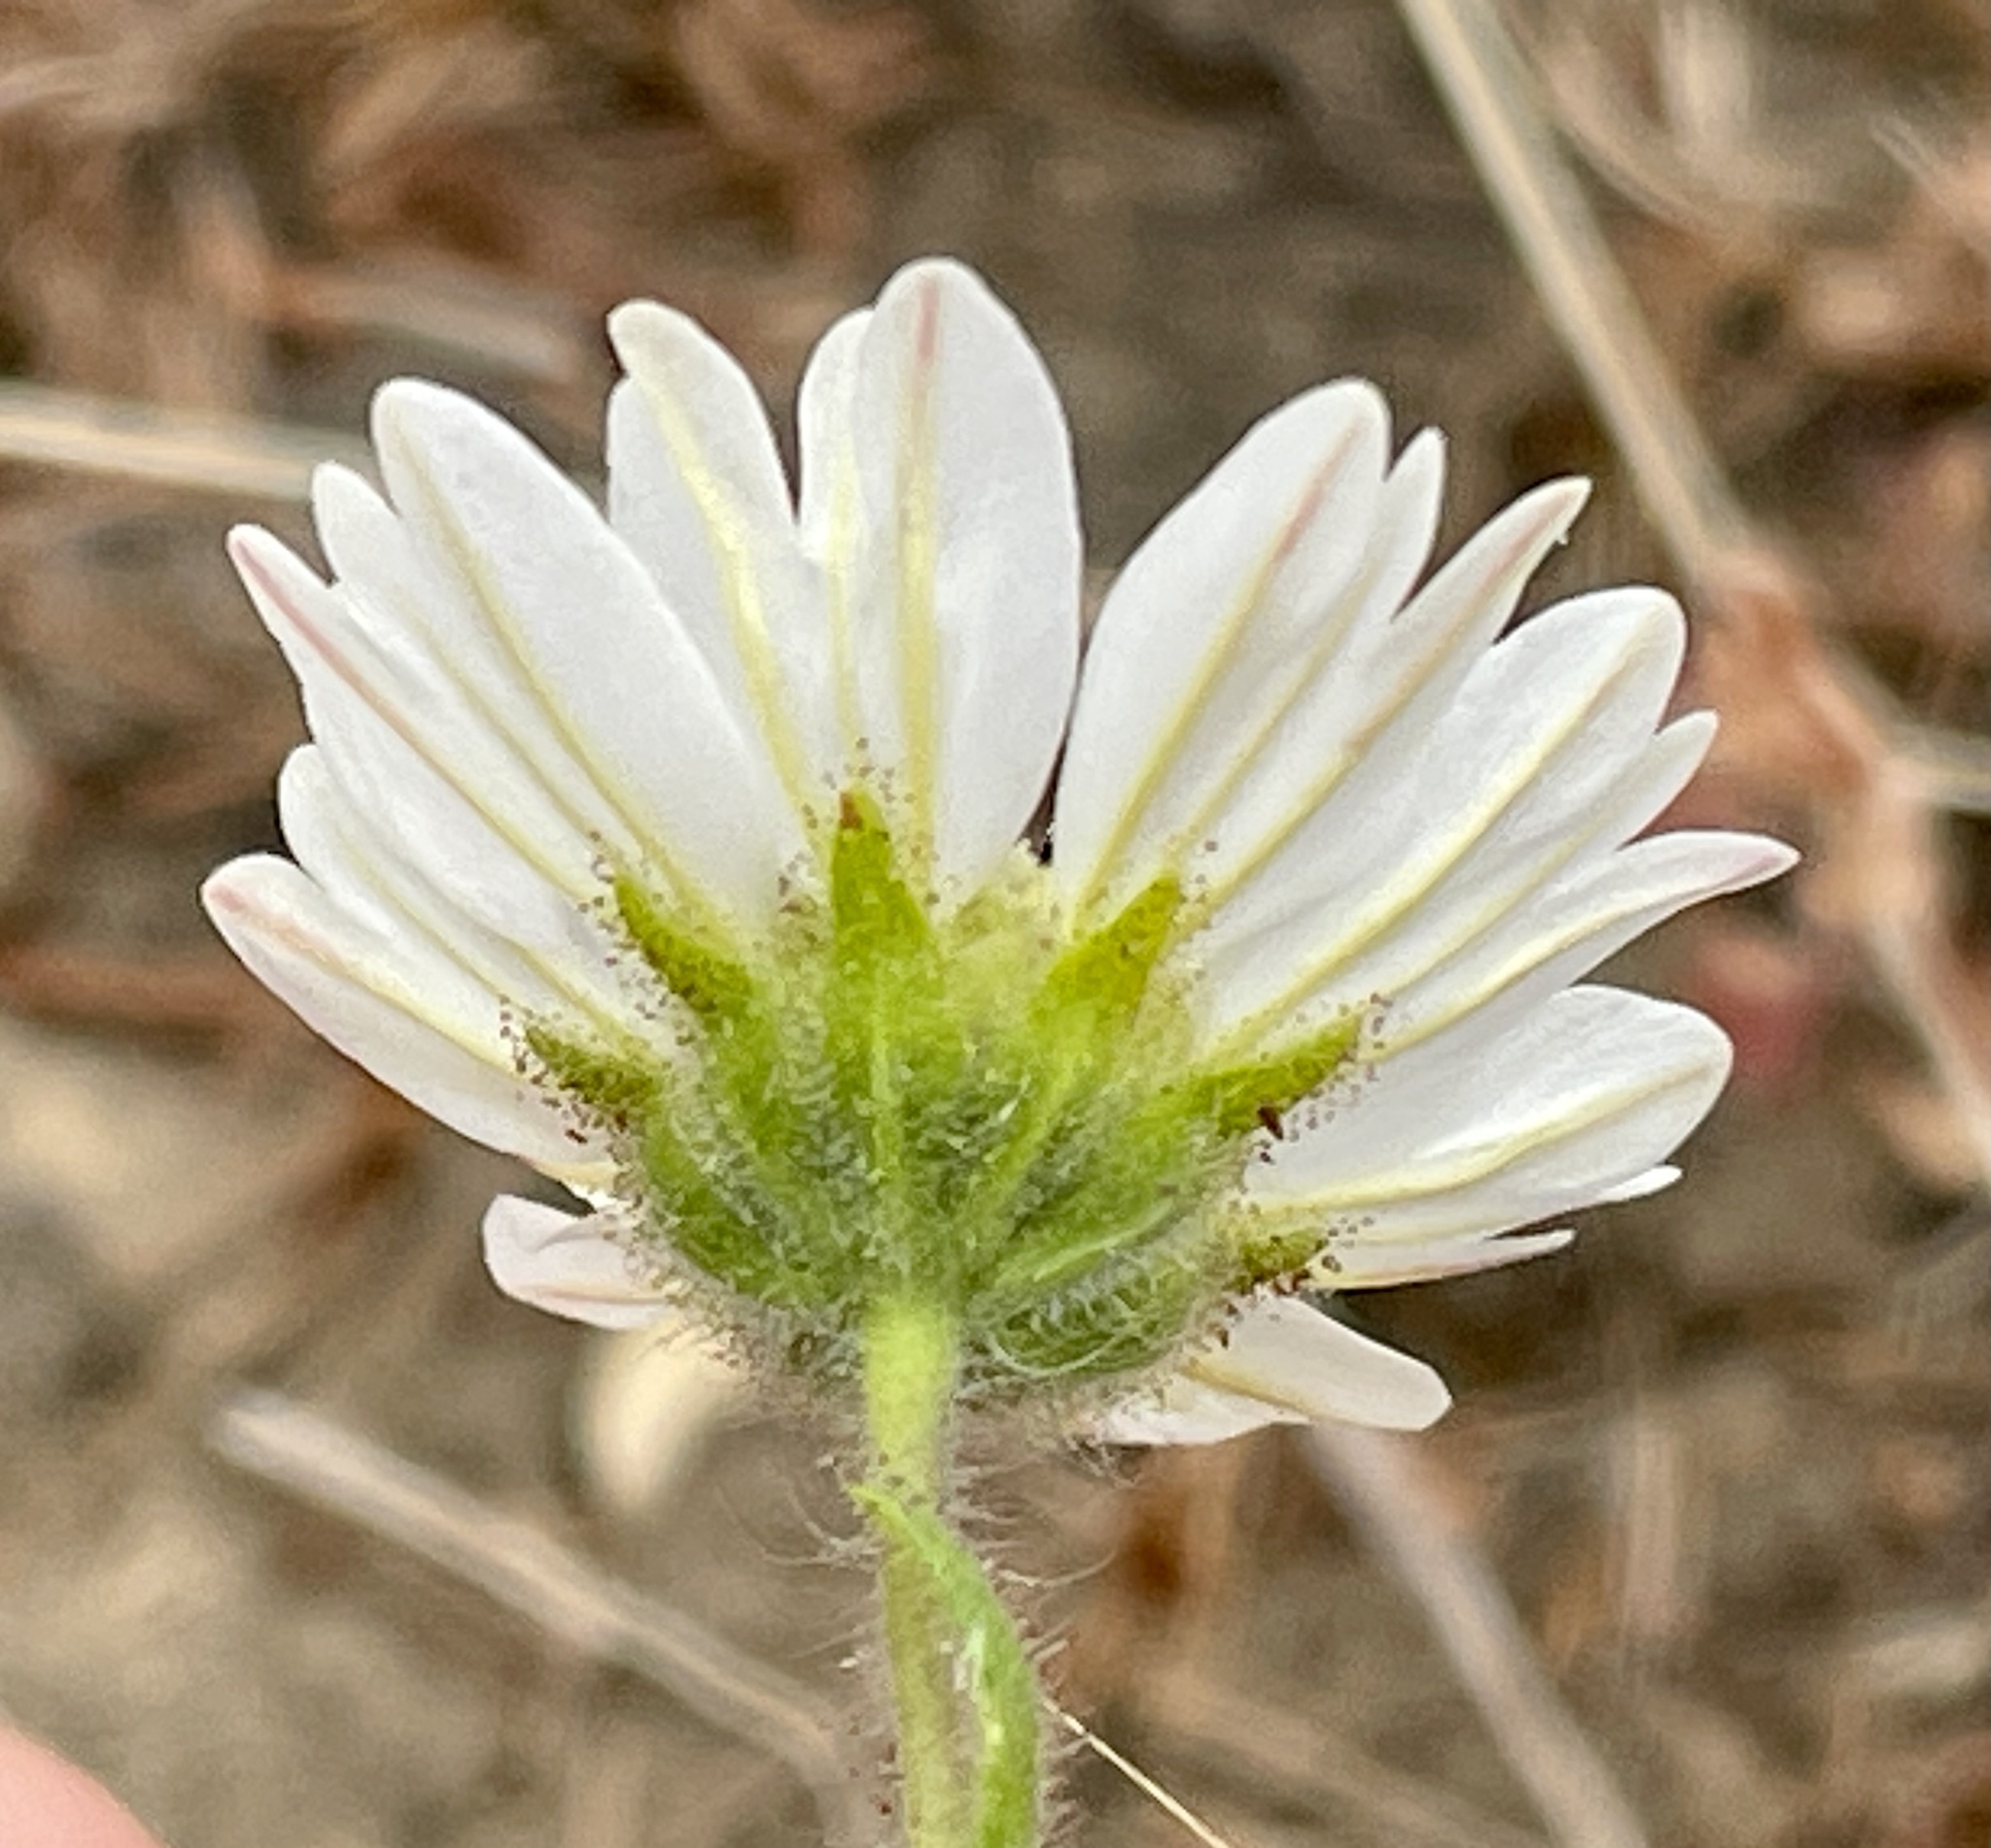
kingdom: Plantae
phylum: Tracheophyta
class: Magnoliopsida
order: Asterales
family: Asteraceae
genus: Hemizonia
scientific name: Hemizonia congesta
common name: Hayfield tarweed
